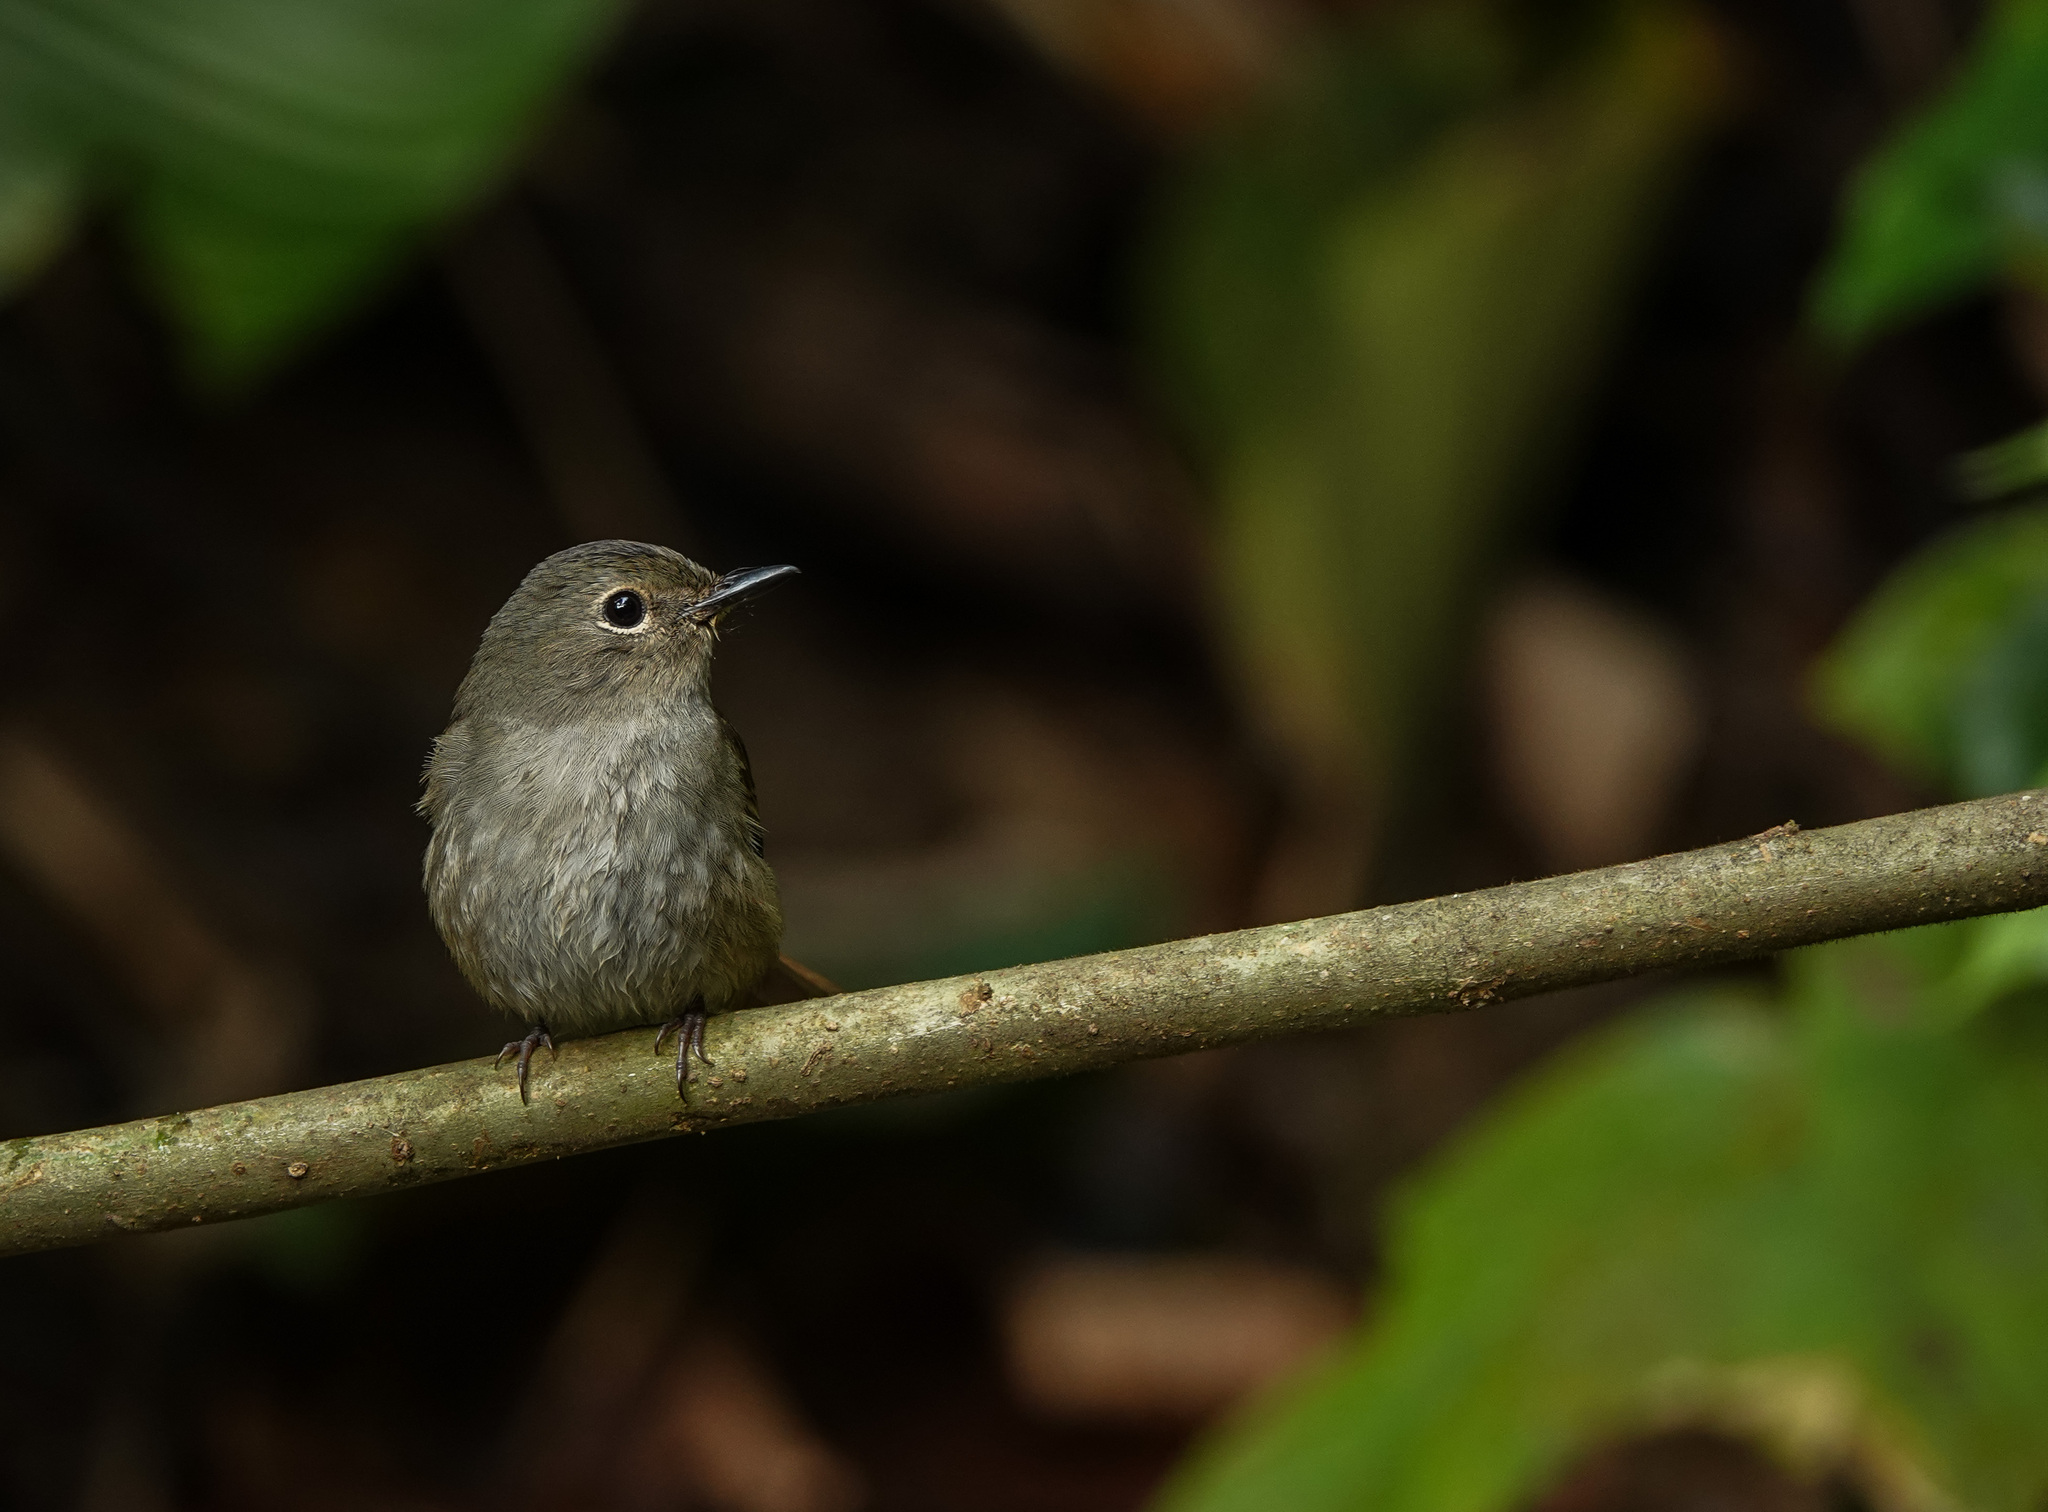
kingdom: Animalia
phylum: Chordata
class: Aves
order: Passeriformes
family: Muscicapidae
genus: Cyornis
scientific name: Cyornis unicolor
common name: Pale blue flycatcher
